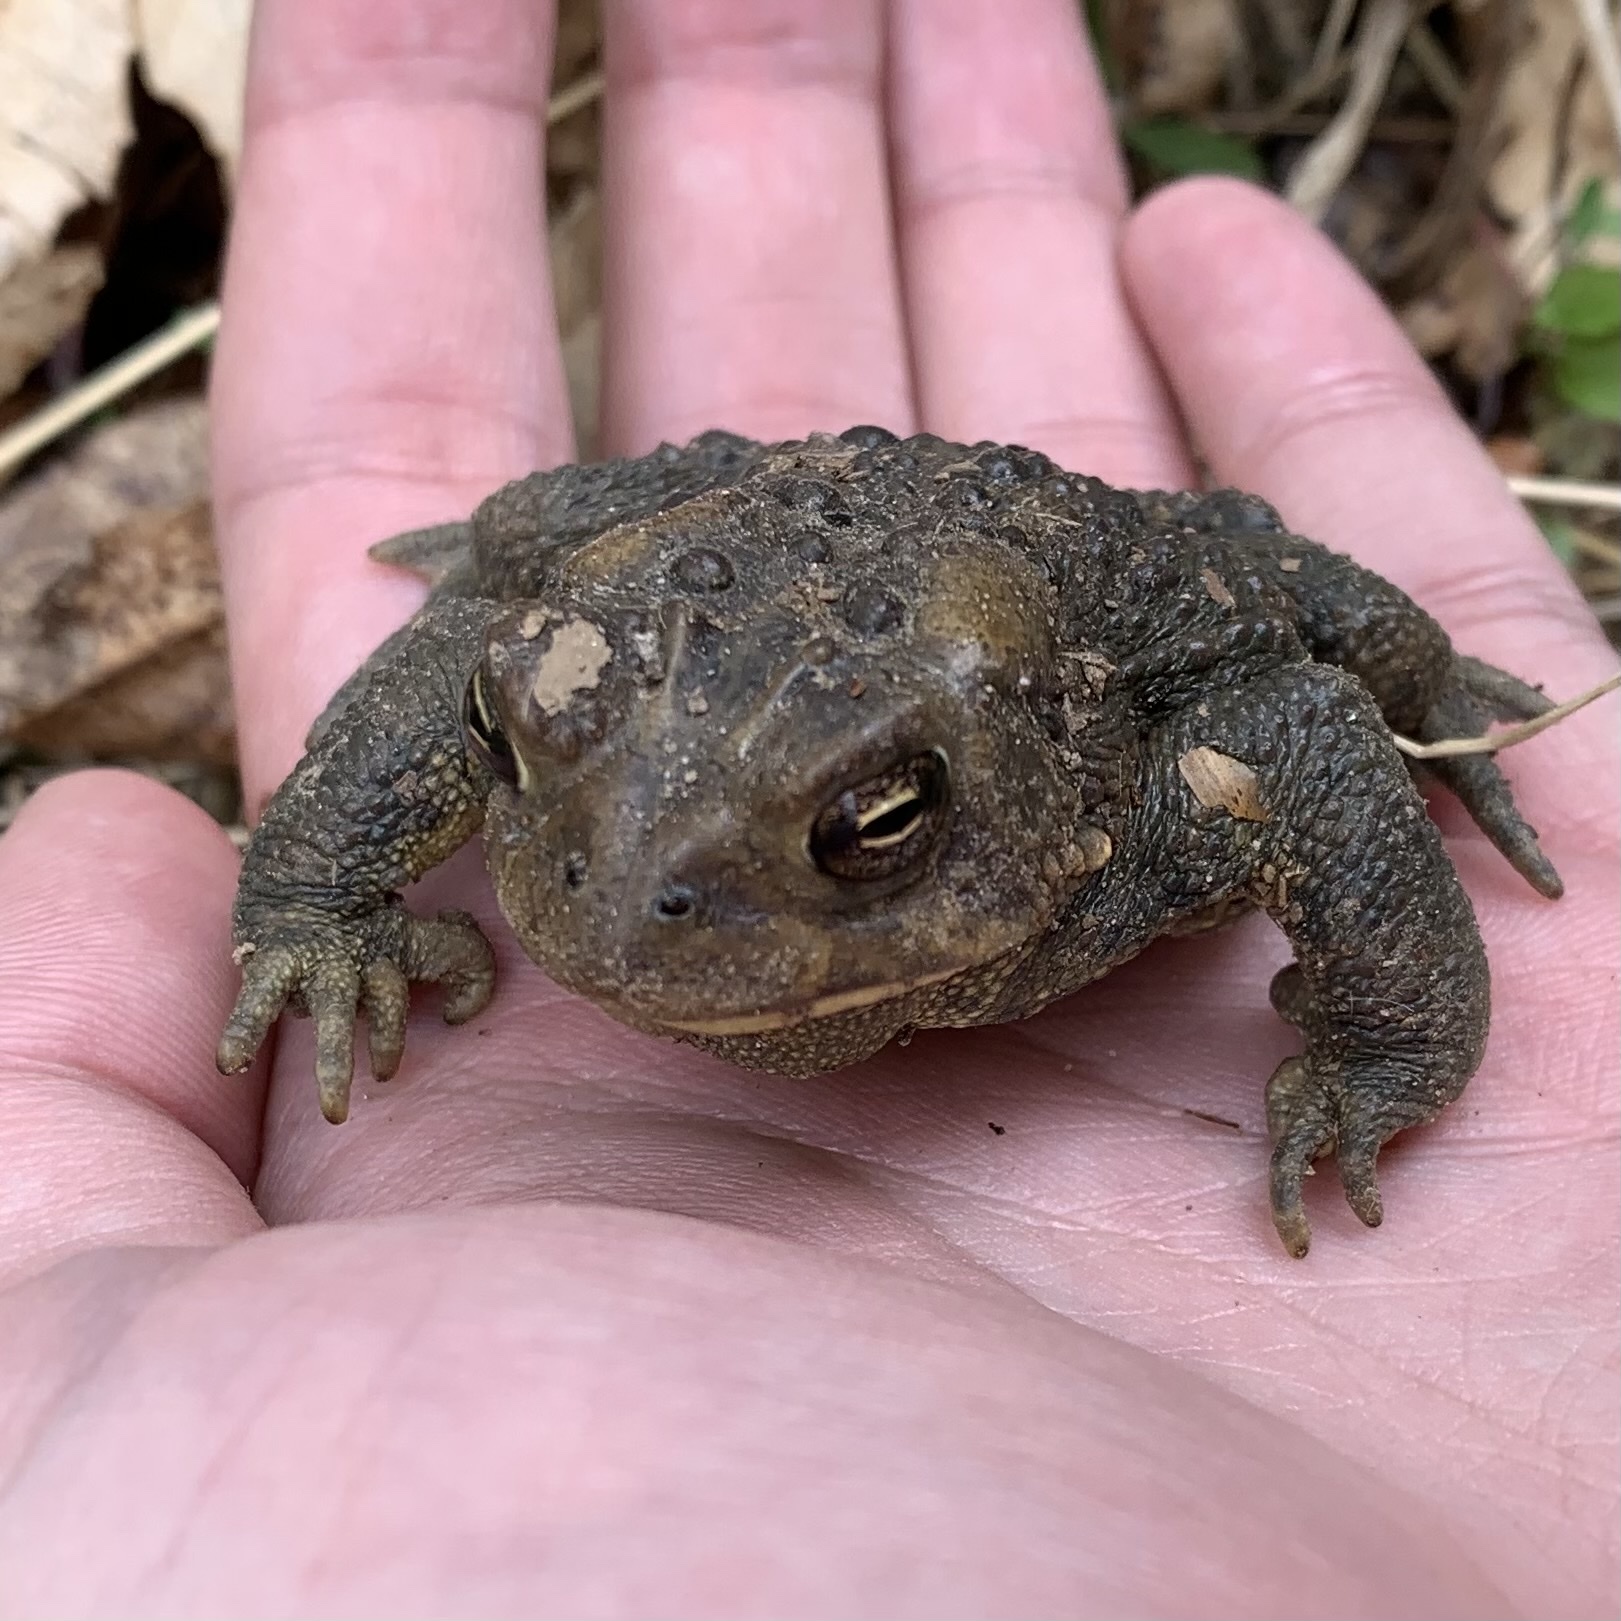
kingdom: Animalia
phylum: Chordata
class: Amphibia
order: Anura
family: Bufonidae
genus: Anaxyrus
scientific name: Anaxyrus americanus
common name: American toad
